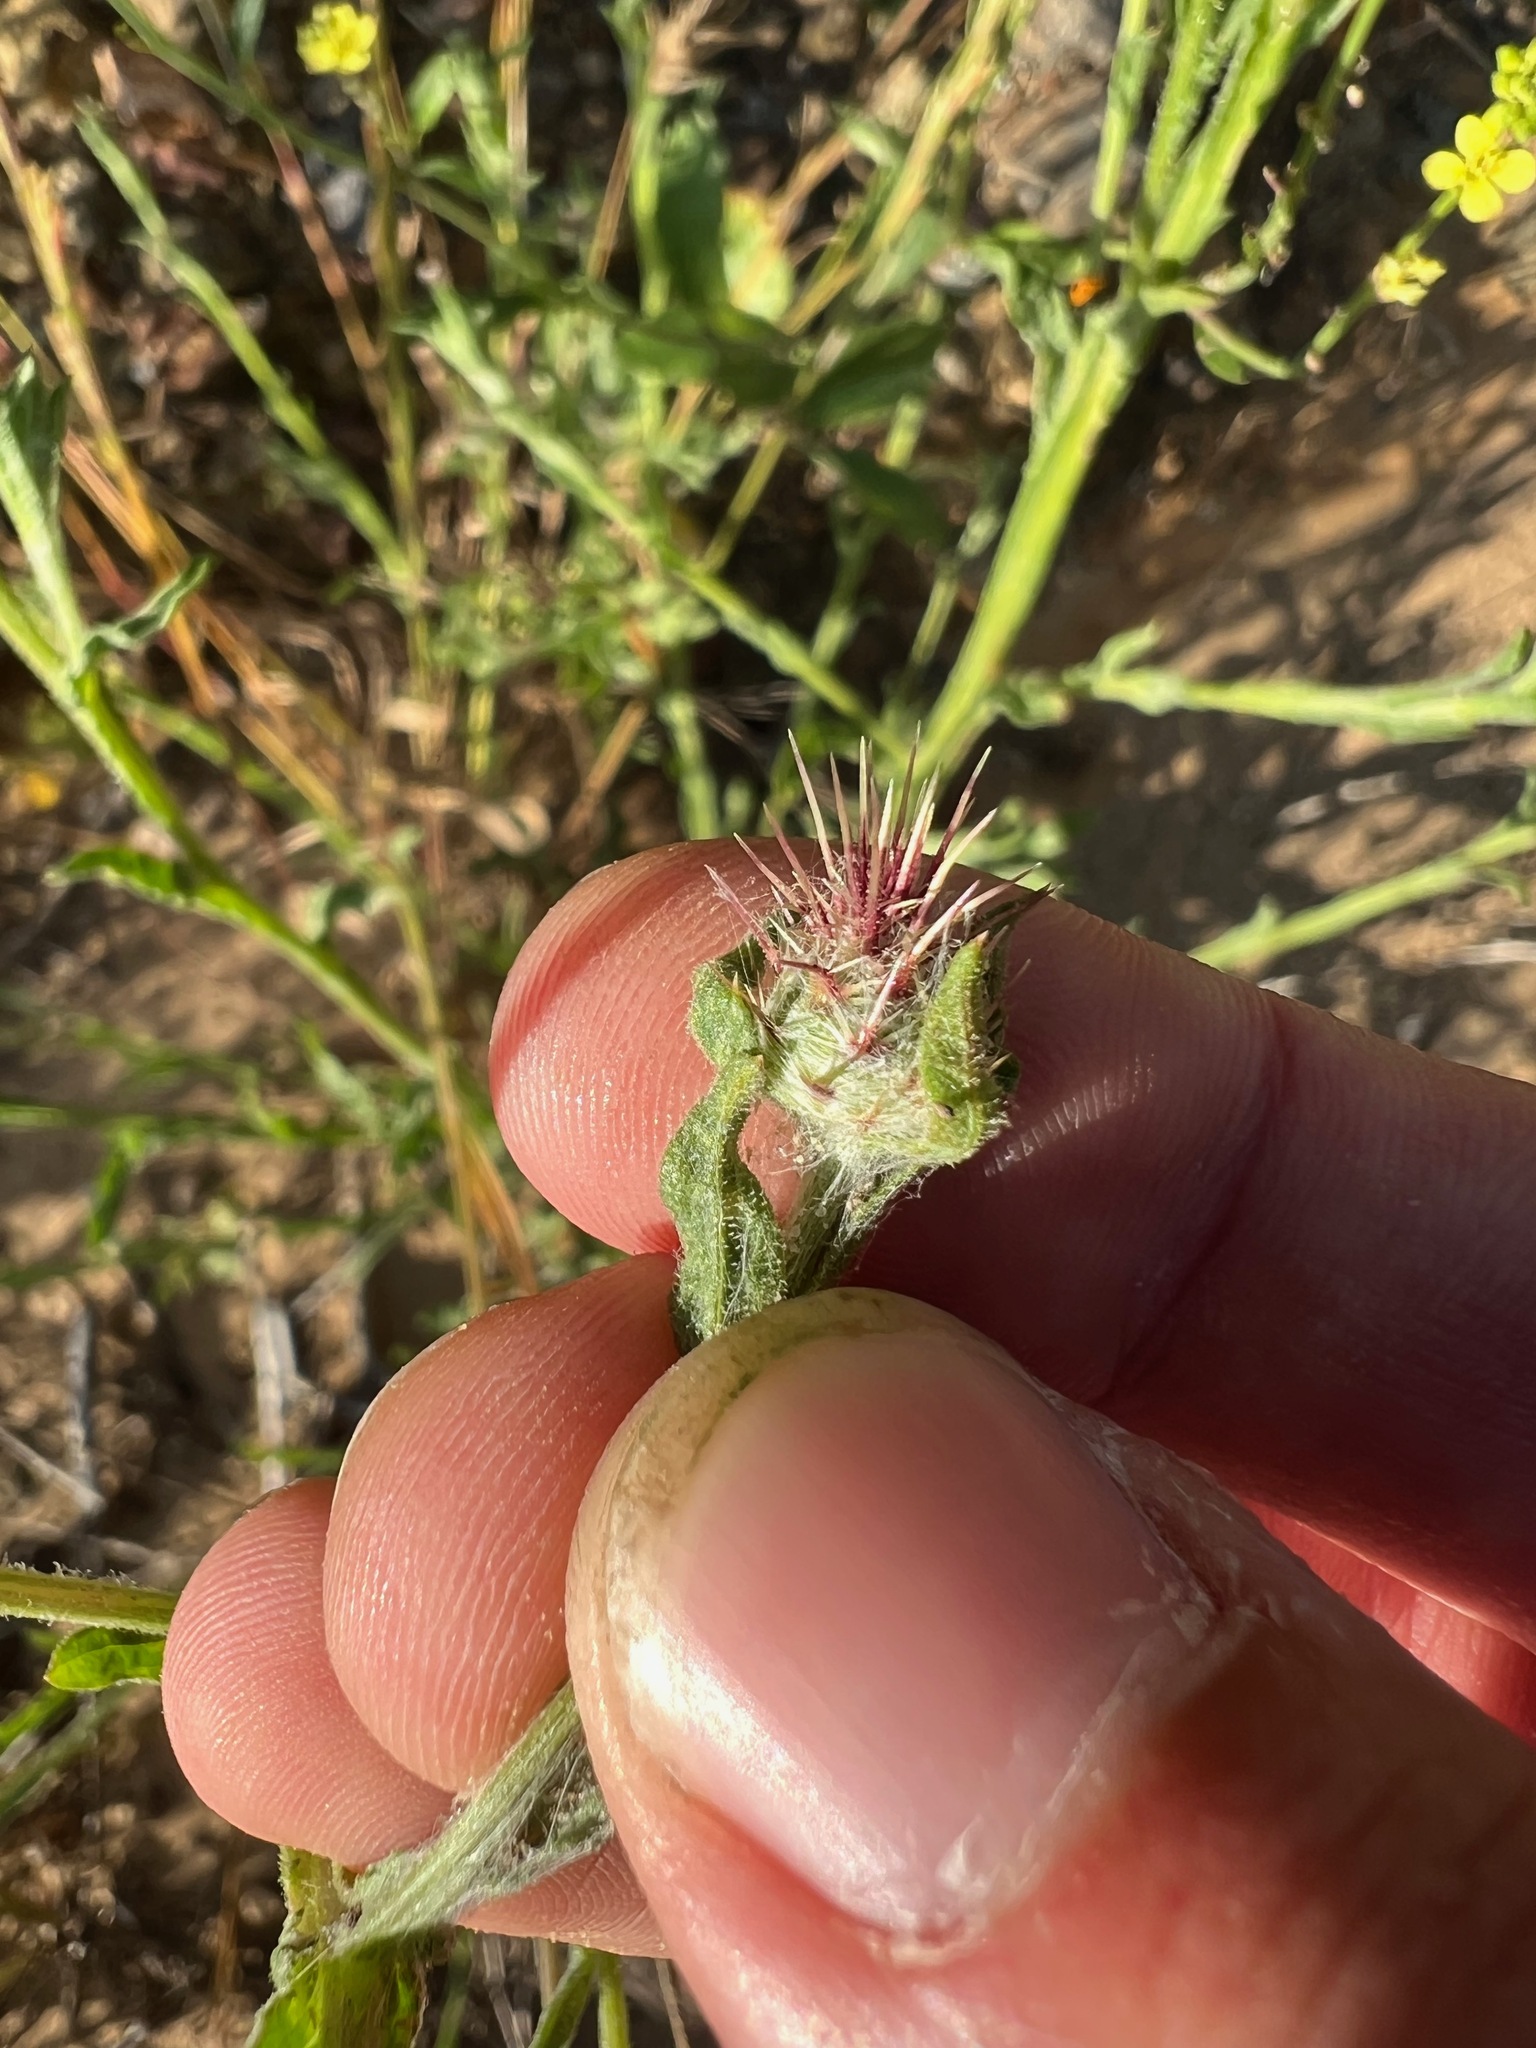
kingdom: Plantae
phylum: Tracheophyta
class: Magnoliopsida
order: Asterales
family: Asteraceae
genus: Centaurea
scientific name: Centaurea melitensis
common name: Maltese star-thistle
